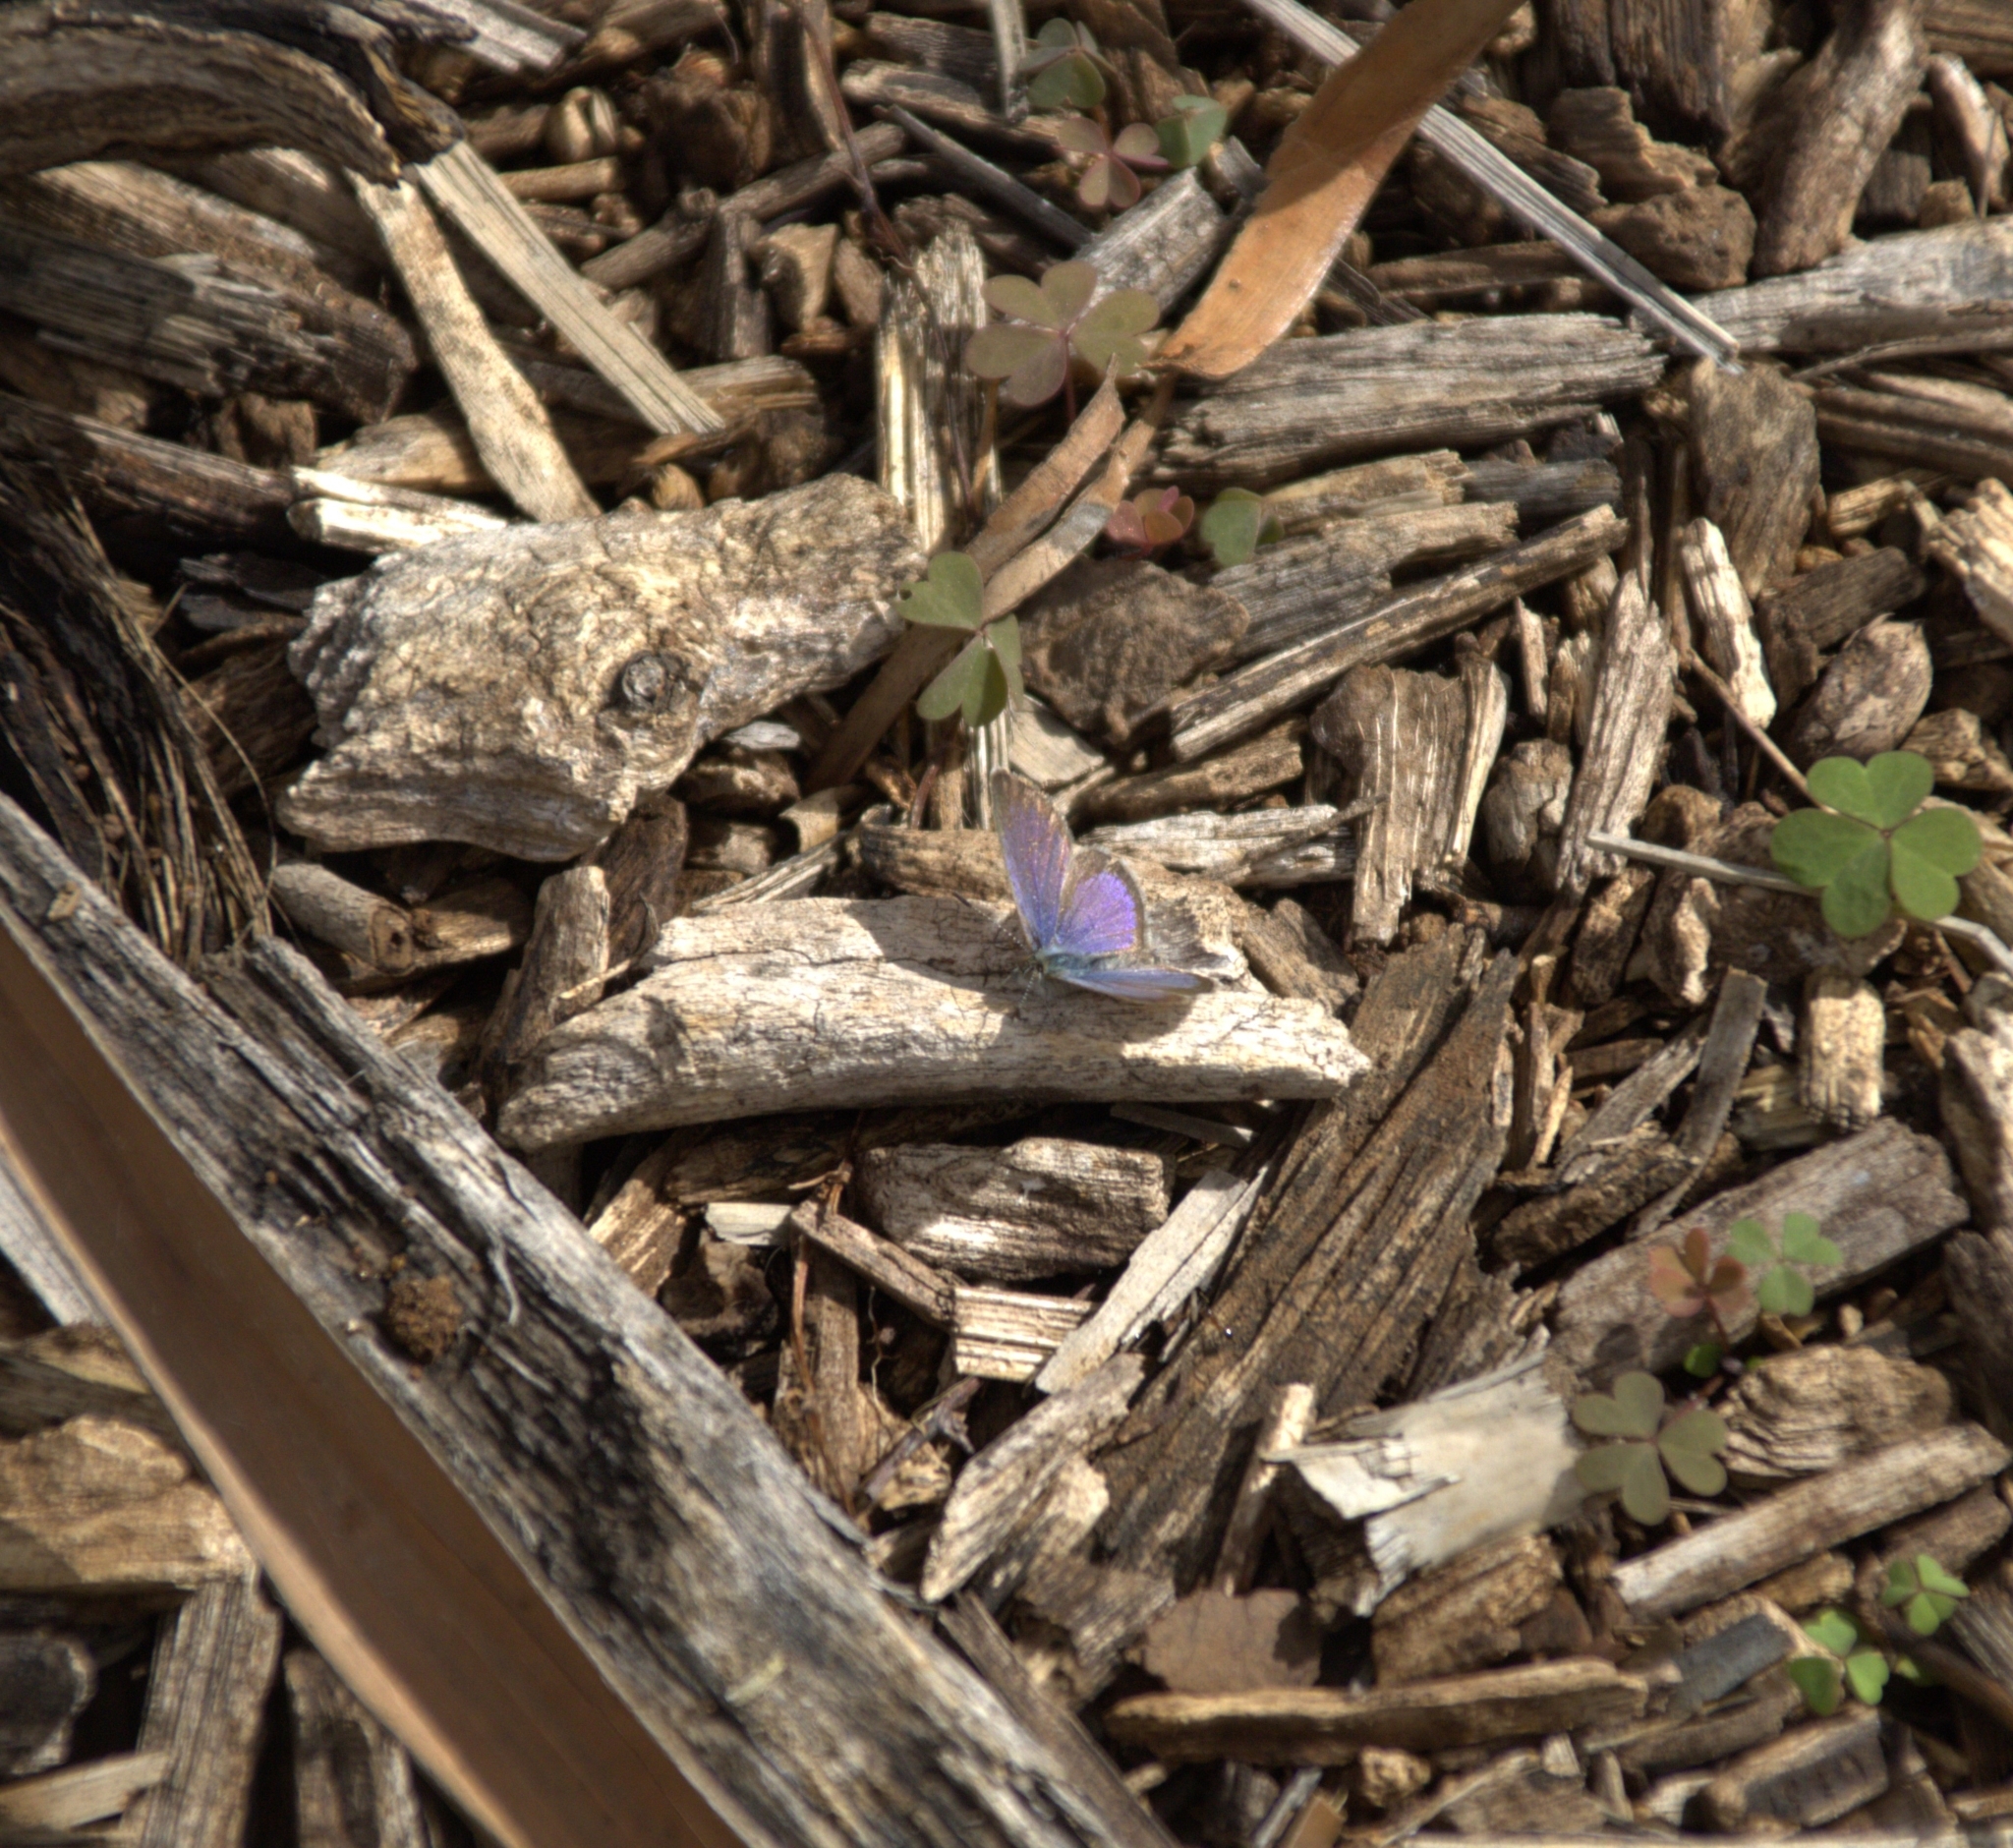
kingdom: Animalia
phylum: Arthropoda
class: Insecta
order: Lepidoptera
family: Lycaenidae
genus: Zizeeria
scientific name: Zizeeria knysna
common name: African grass blue
